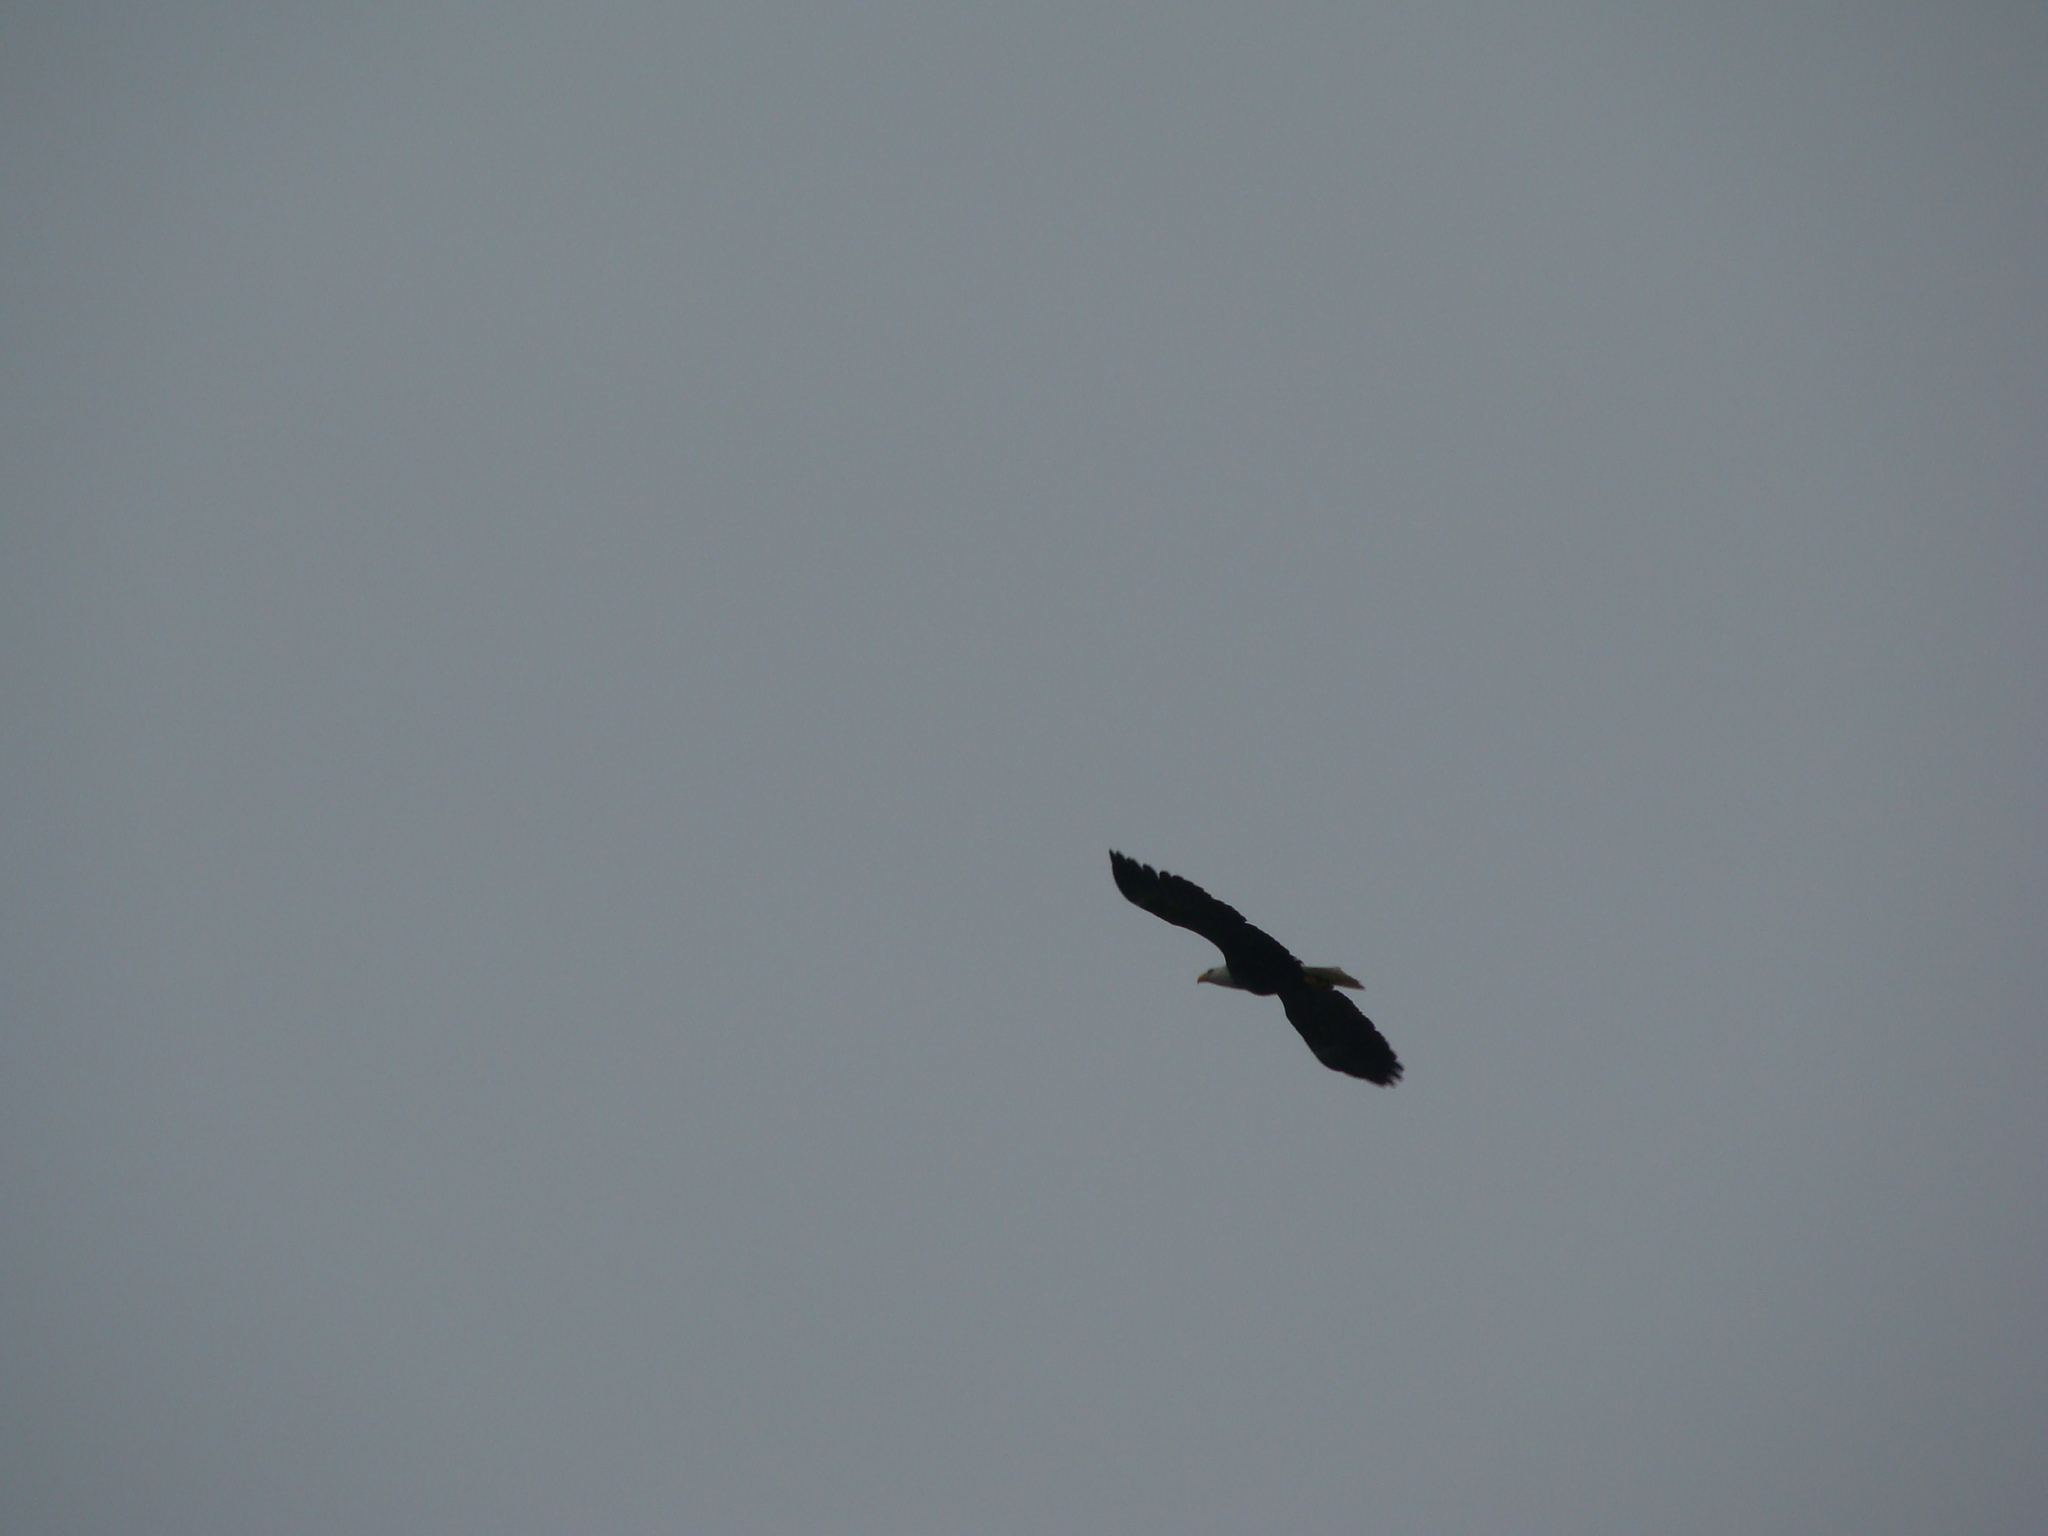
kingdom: Animalia
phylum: Chordata
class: Aves
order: Accipitriformes
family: Accipitridae
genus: Haliaeetus
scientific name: Haliaeetus leucocephalus
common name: Bald eagle
